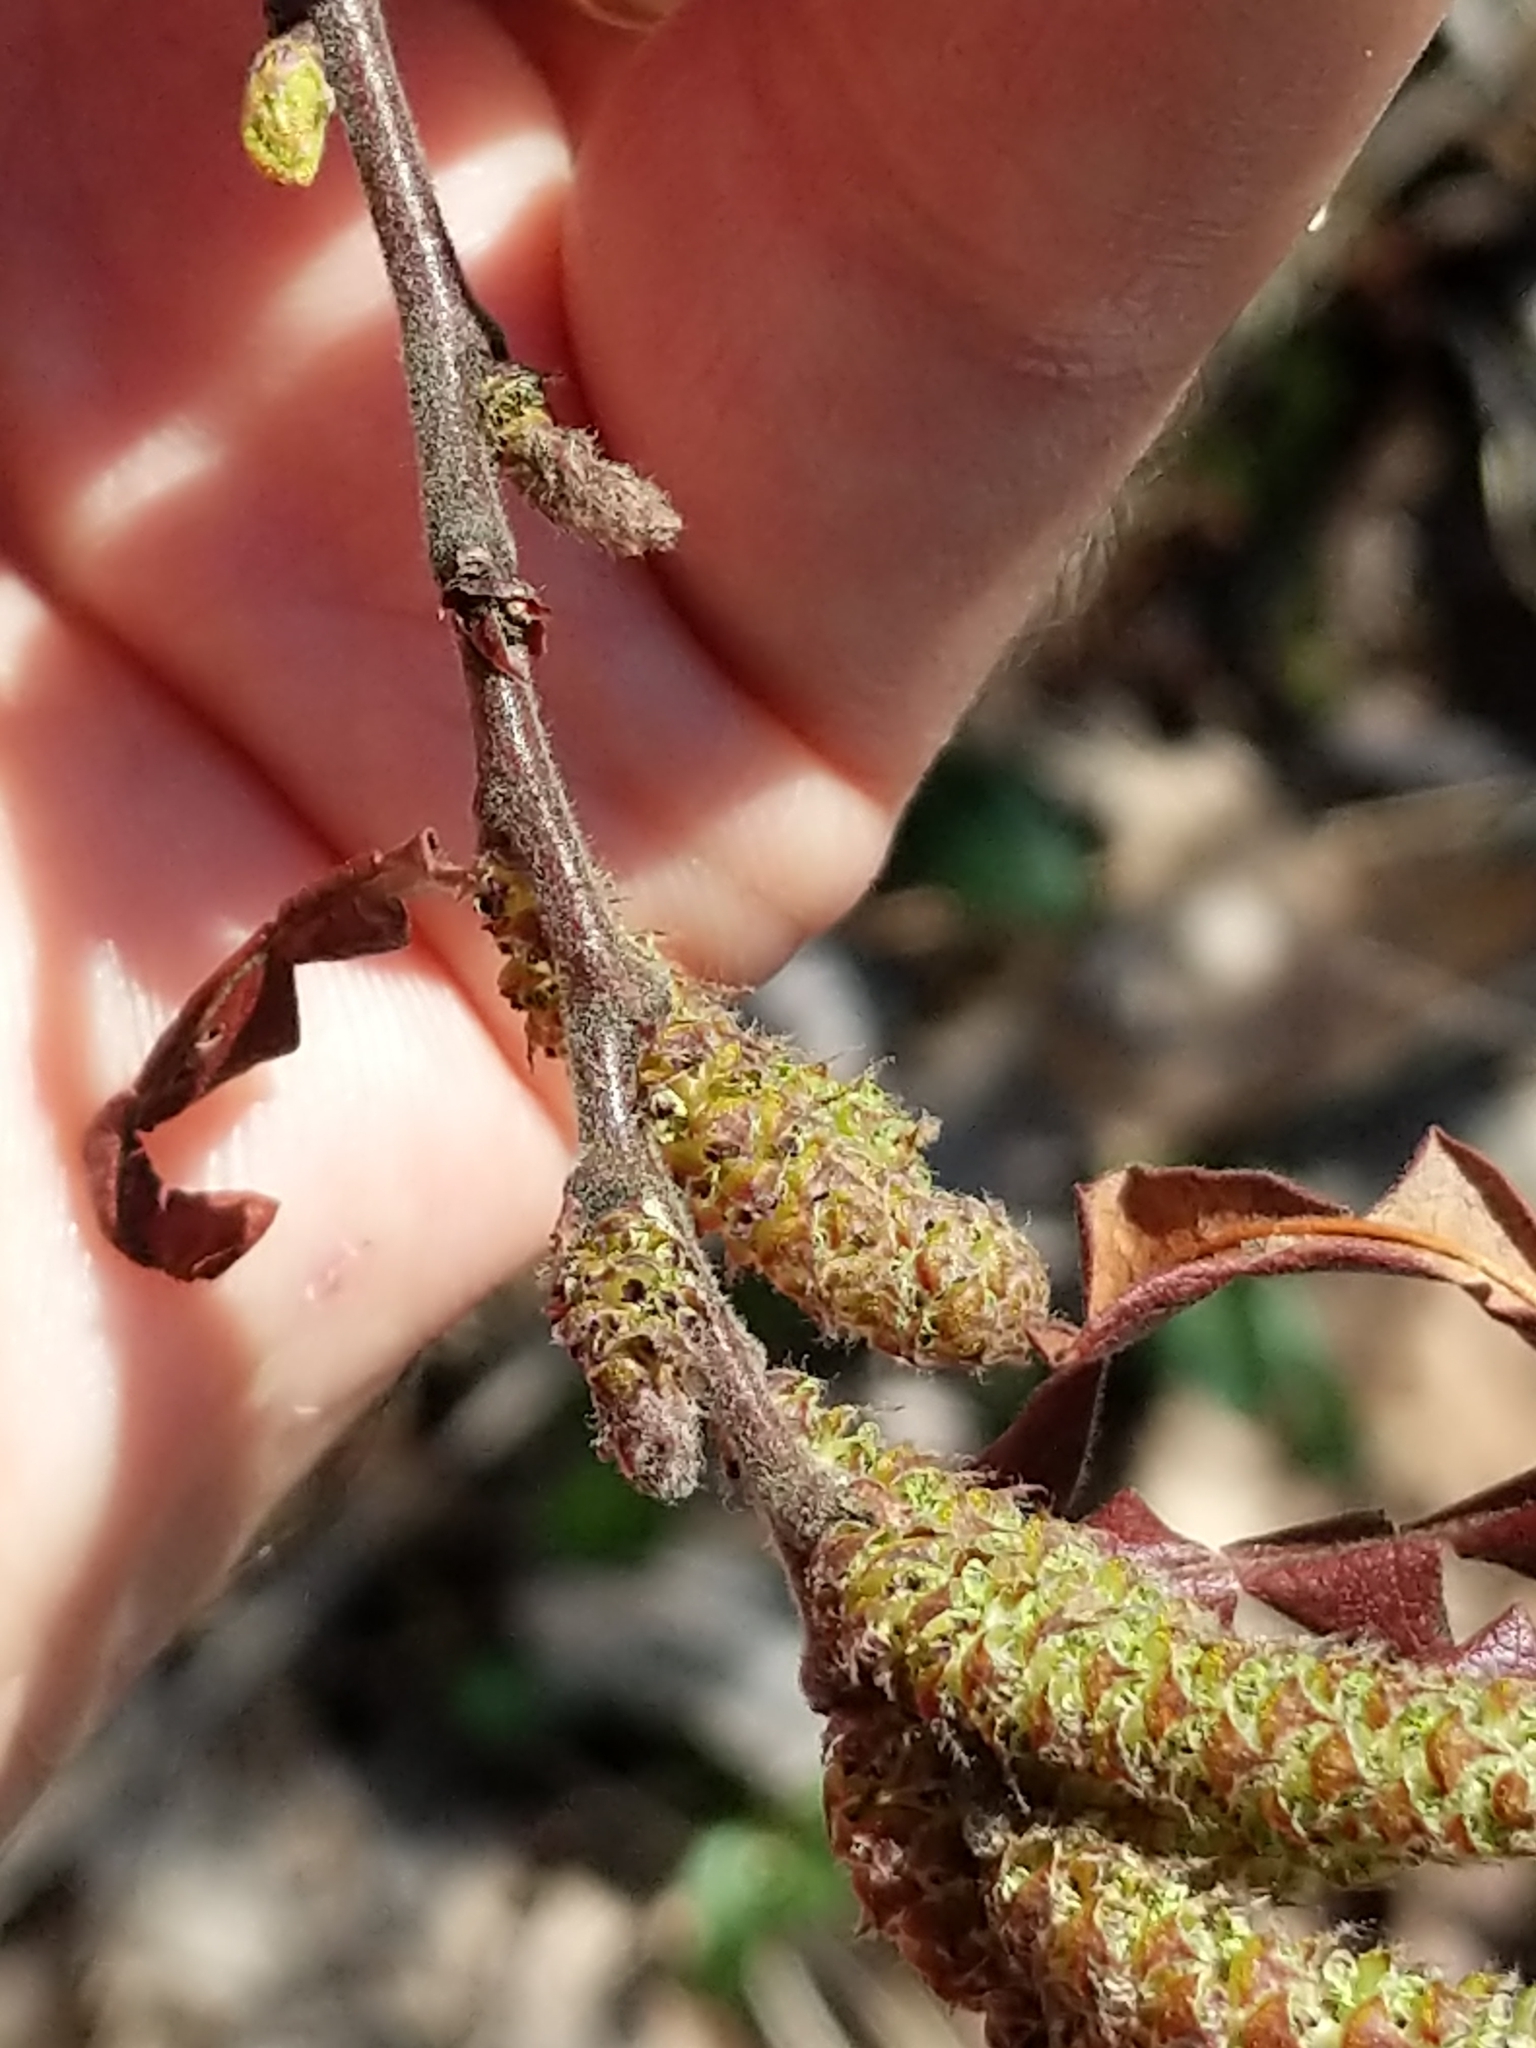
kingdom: Plantae
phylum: Tracheophyta
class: Magnoliopsida
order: Fagales
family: Myricaceae
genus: Comptonia
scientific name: Comptonia peregrina
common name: Sweet-fern
